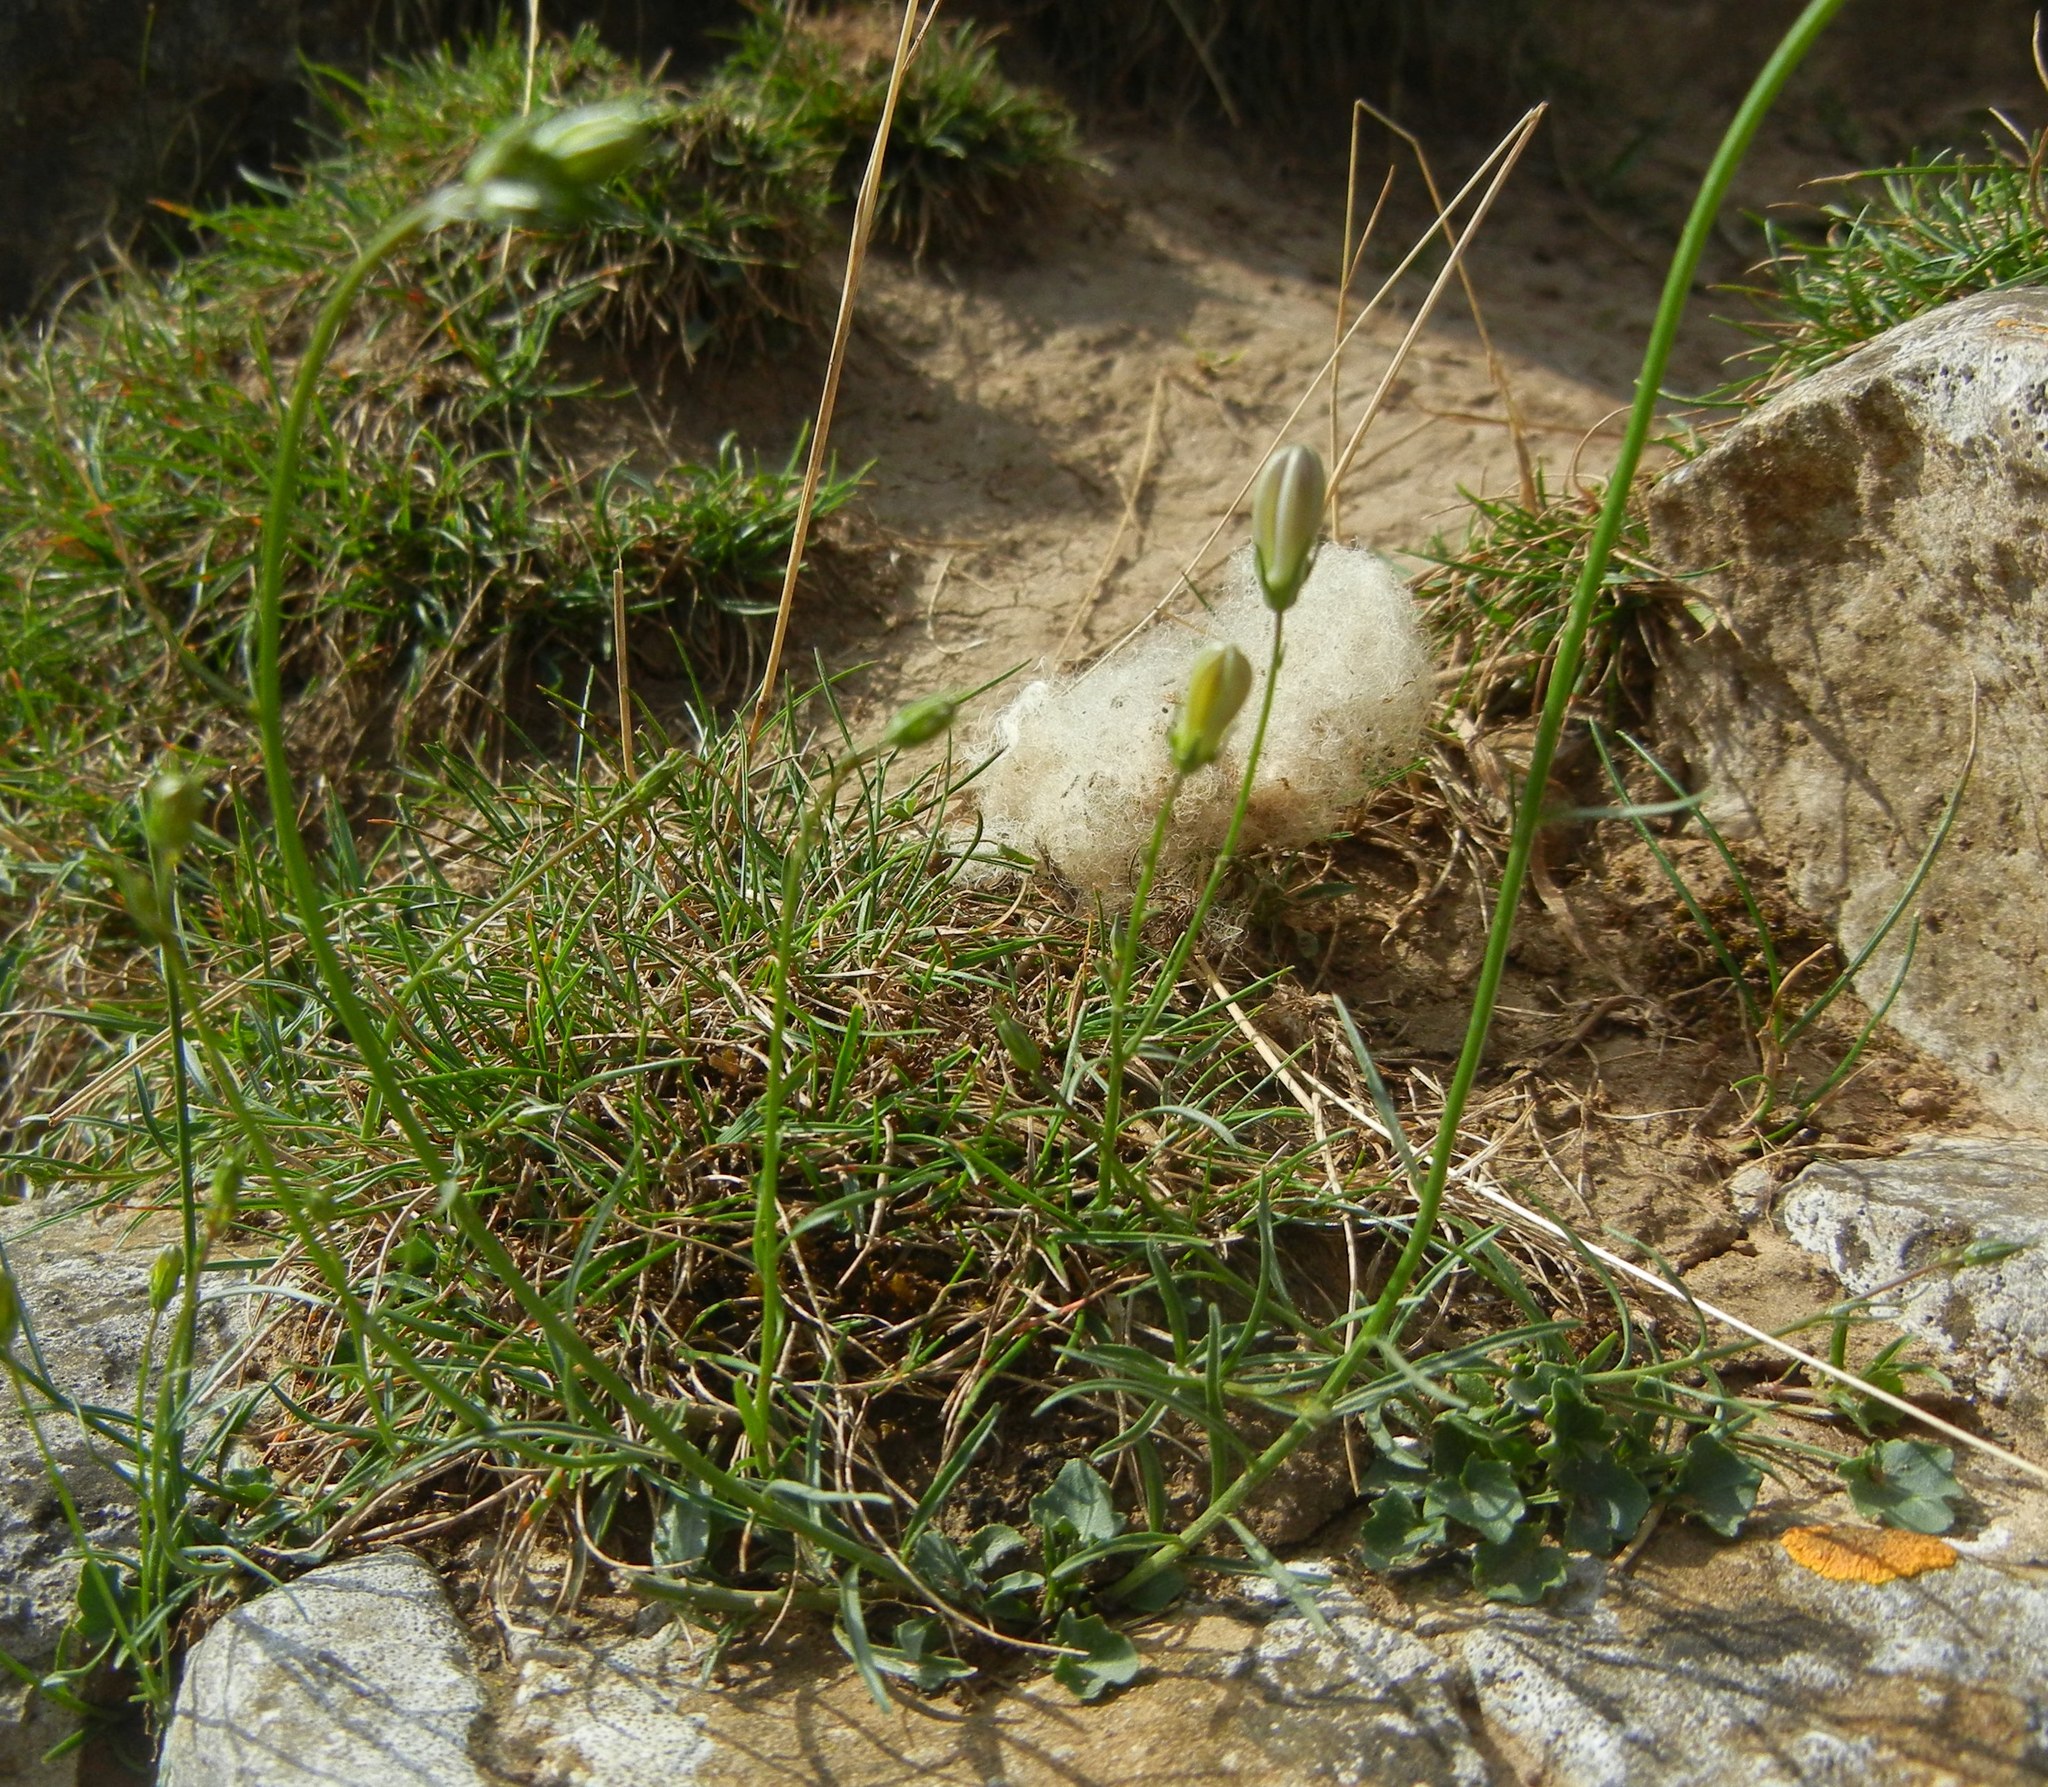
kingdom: Plantae
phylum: Tracheophyta
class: Magnoliopsida
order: Asterales
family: Campanulaceae
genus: Campanula
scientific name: Campanula rotundifolia
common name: Harebell
